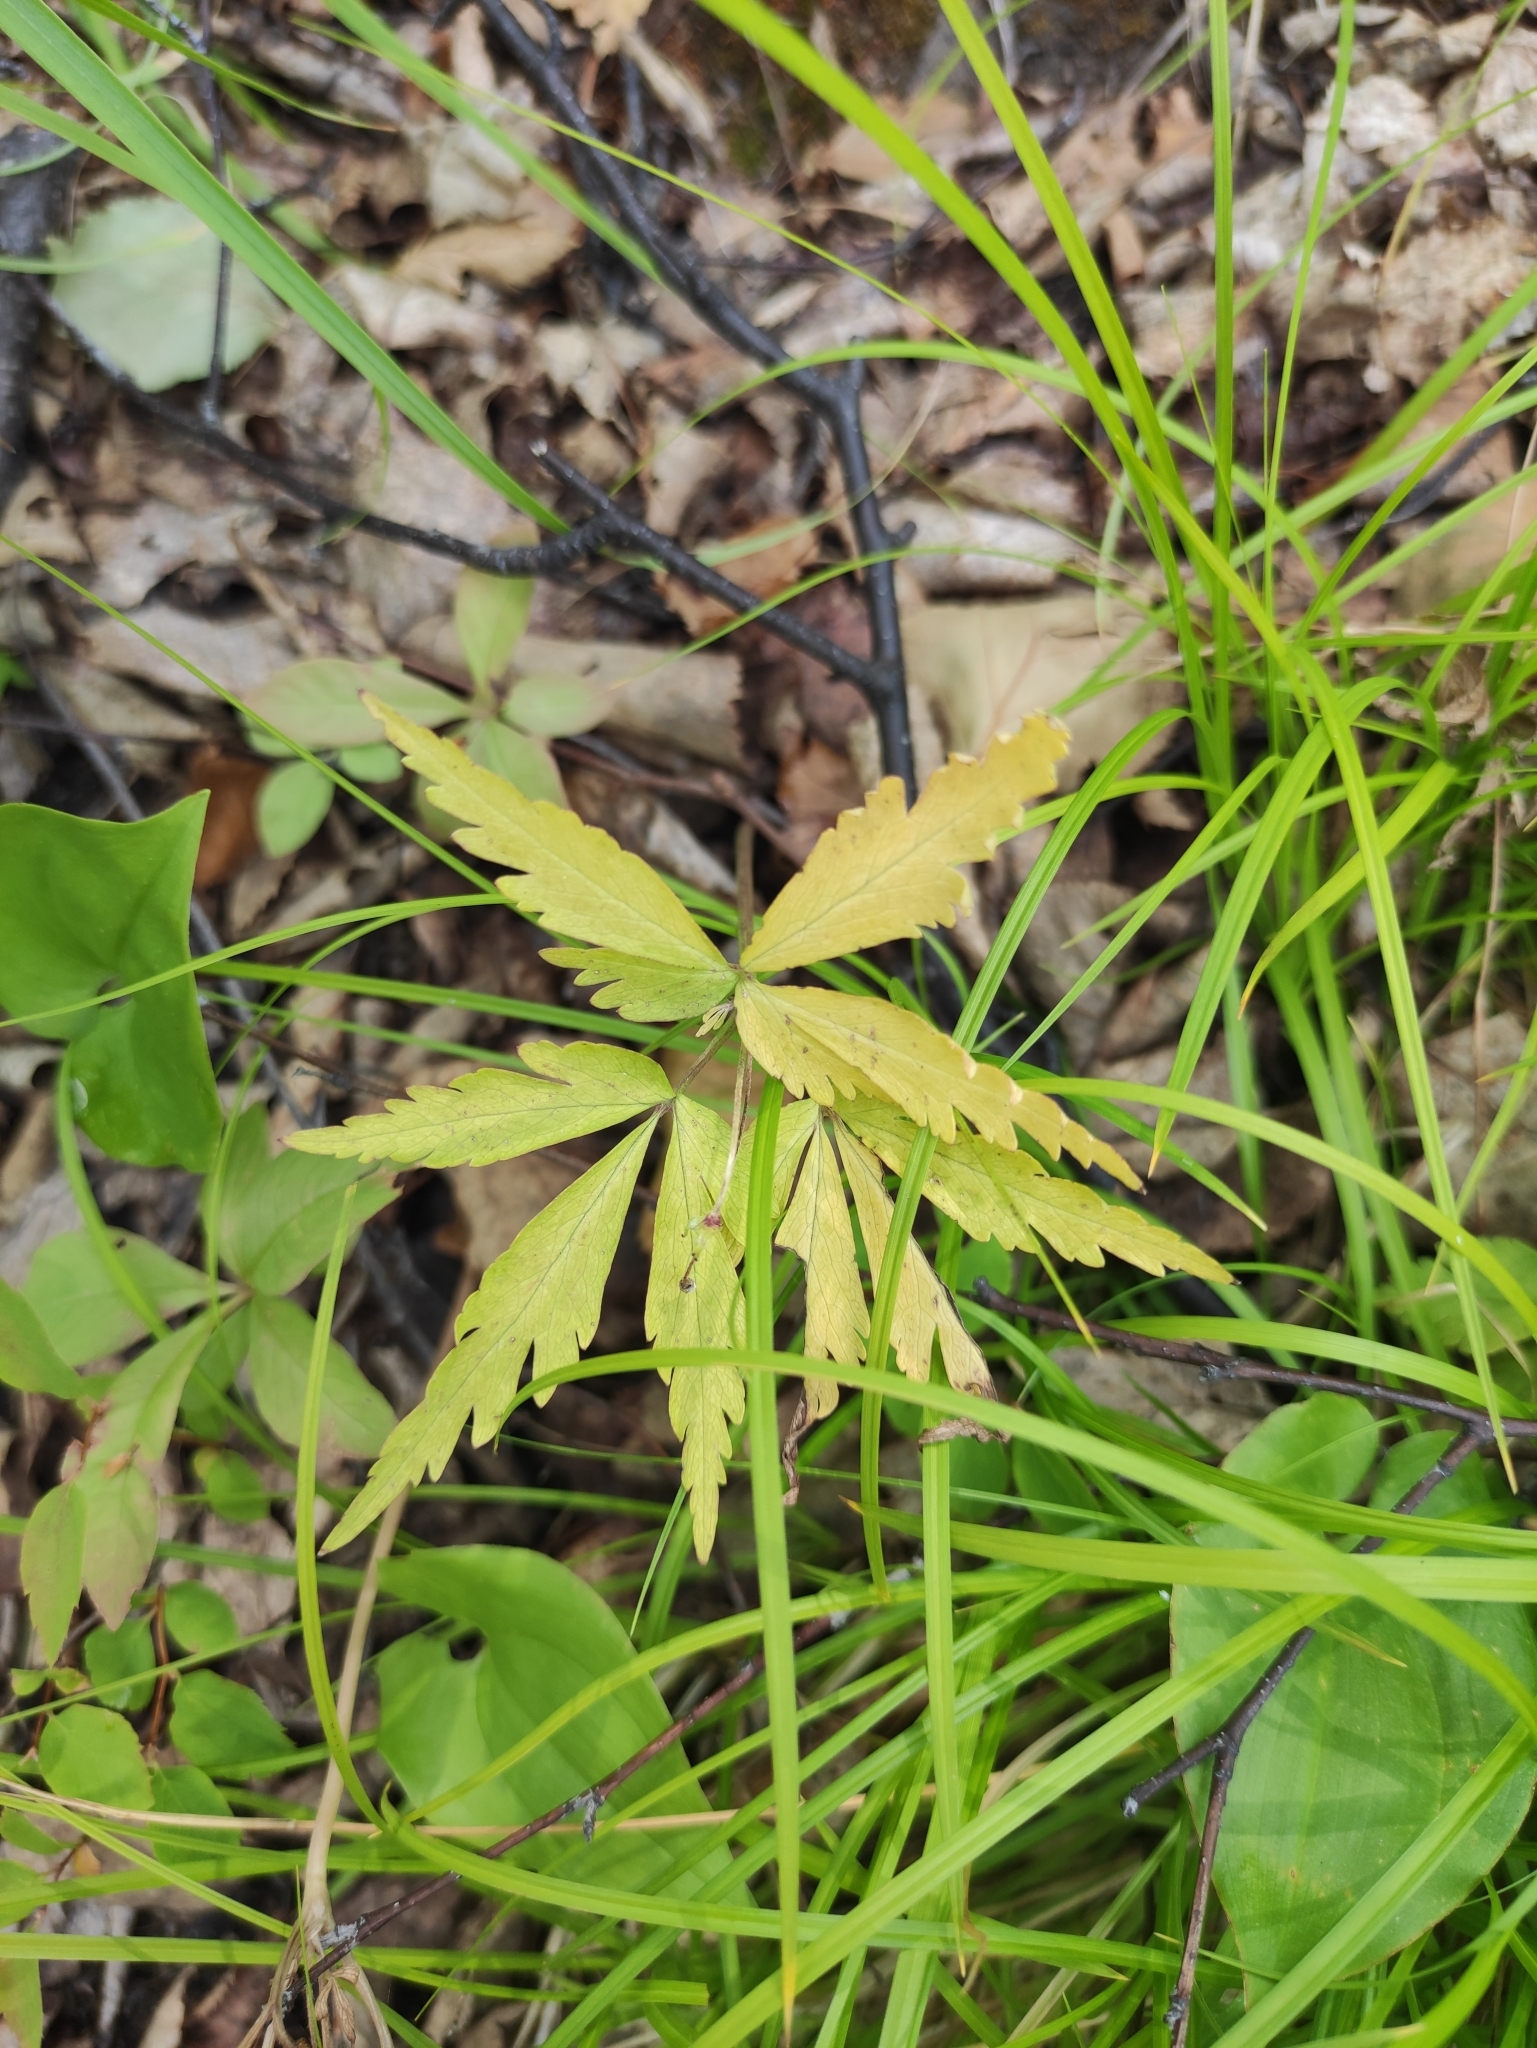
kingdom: Plantae
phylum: Tracheophyta
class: Magnoliopsida
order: Ranunculales
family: Ranunculaceae
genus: Anemone
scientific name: Anemone reflexa
